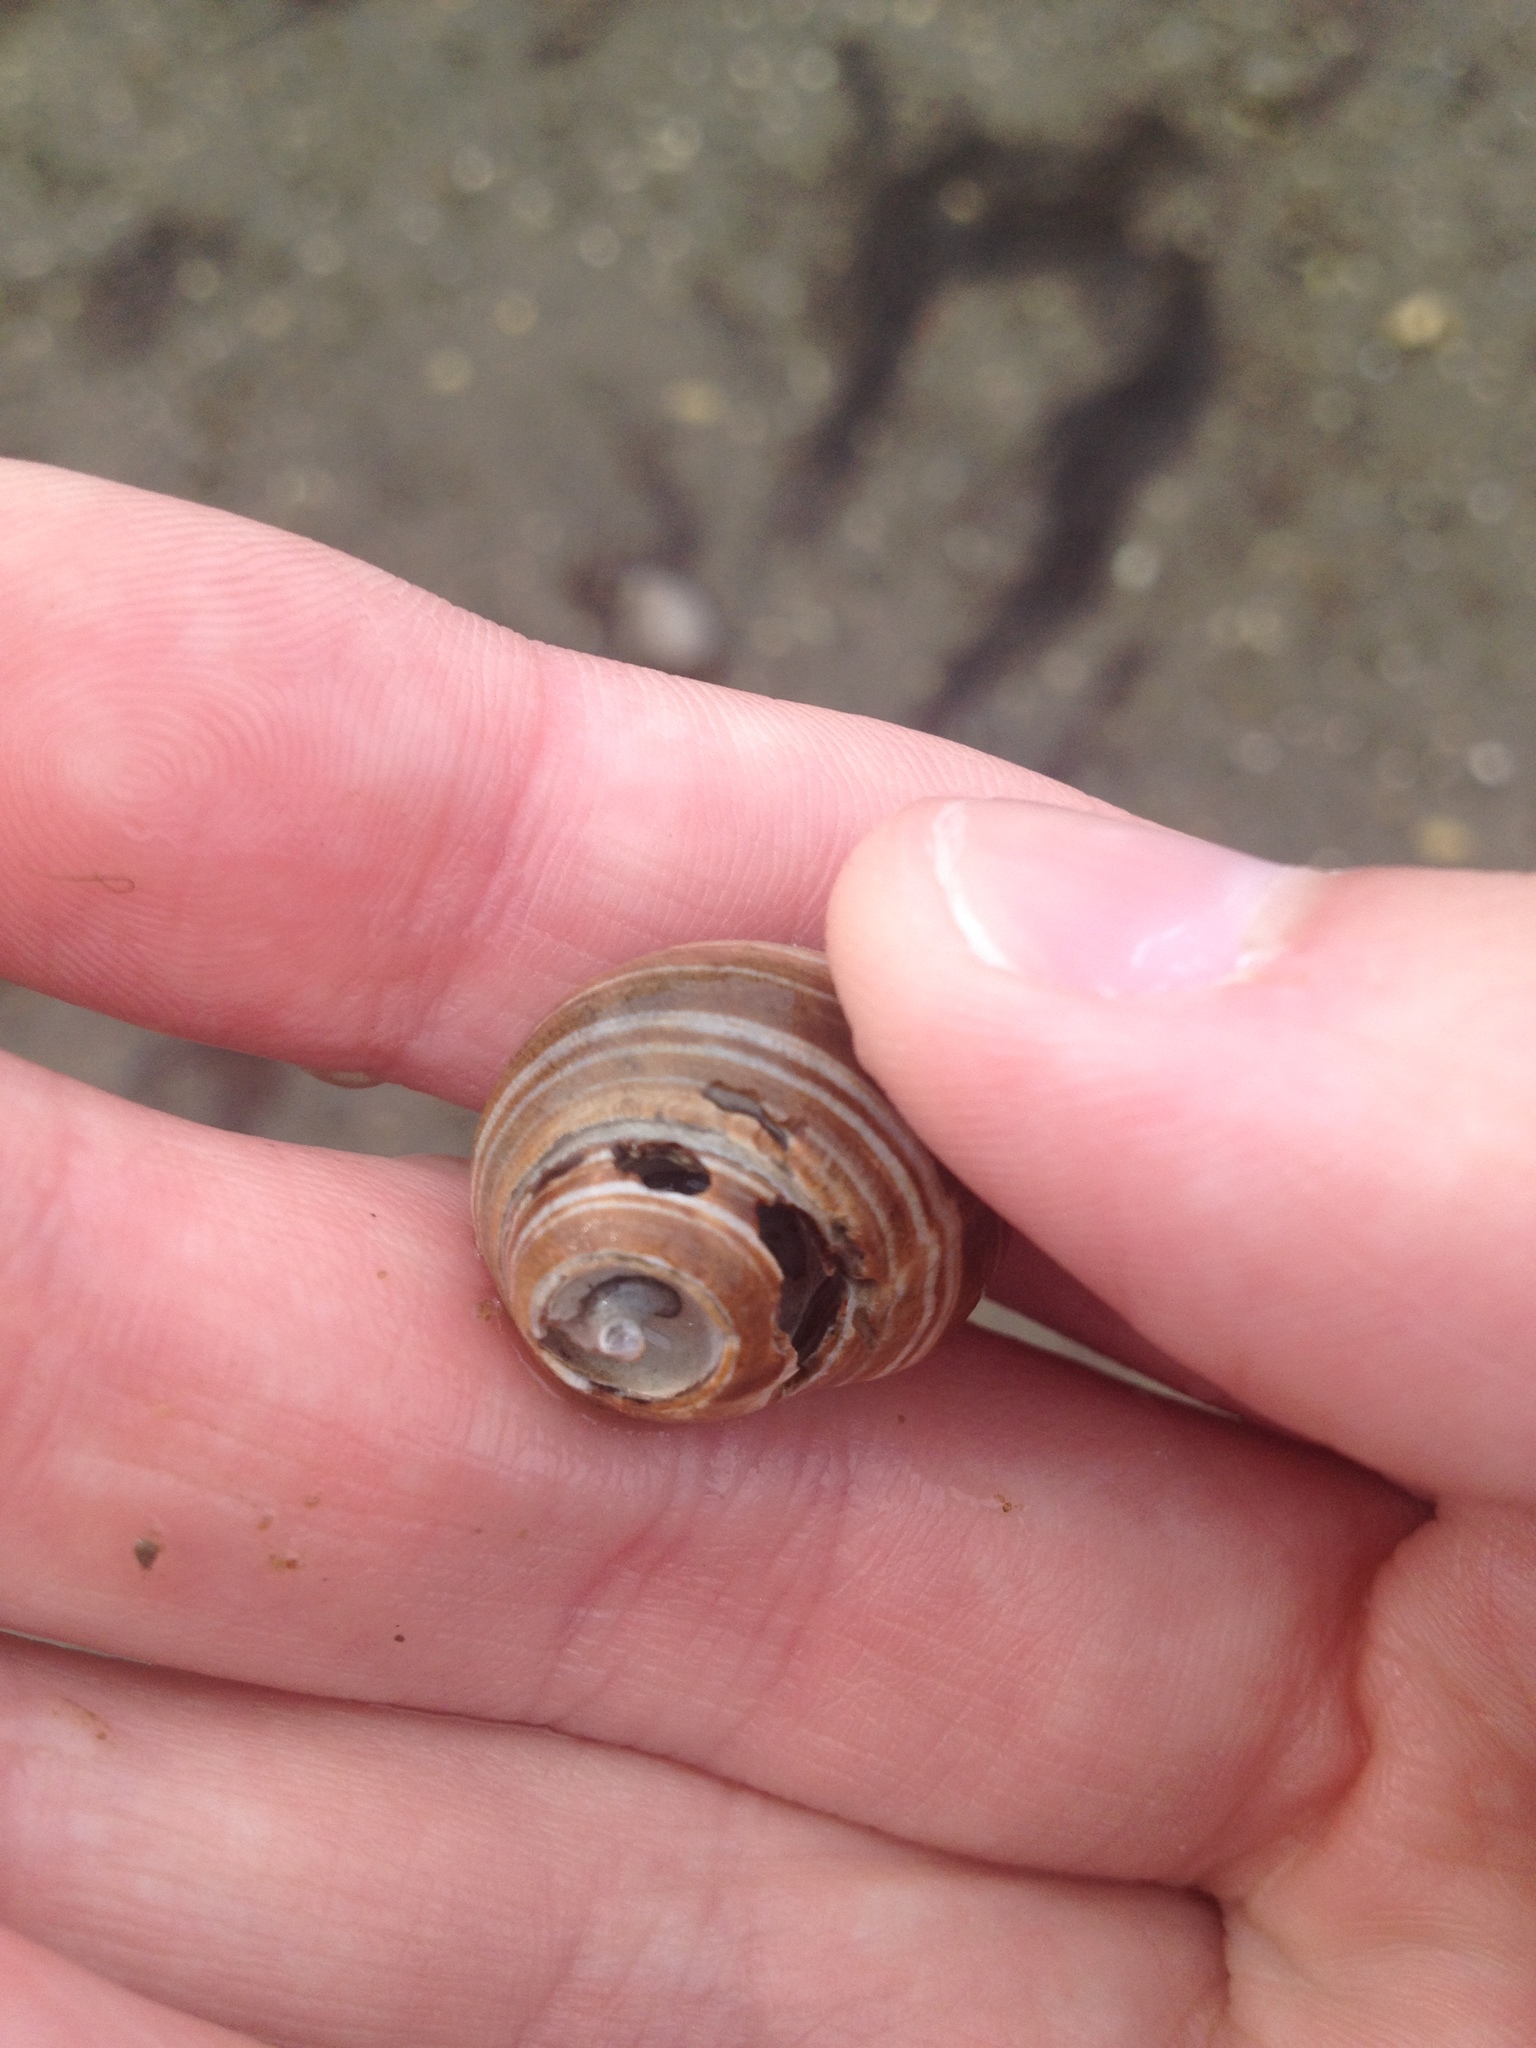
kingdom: Animalia
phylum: Mollusca
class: Gastropoda
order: Littorinimorpha
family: Littorinidae
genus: Littorina
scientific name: Littorina littorea
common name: Common periwinkle
